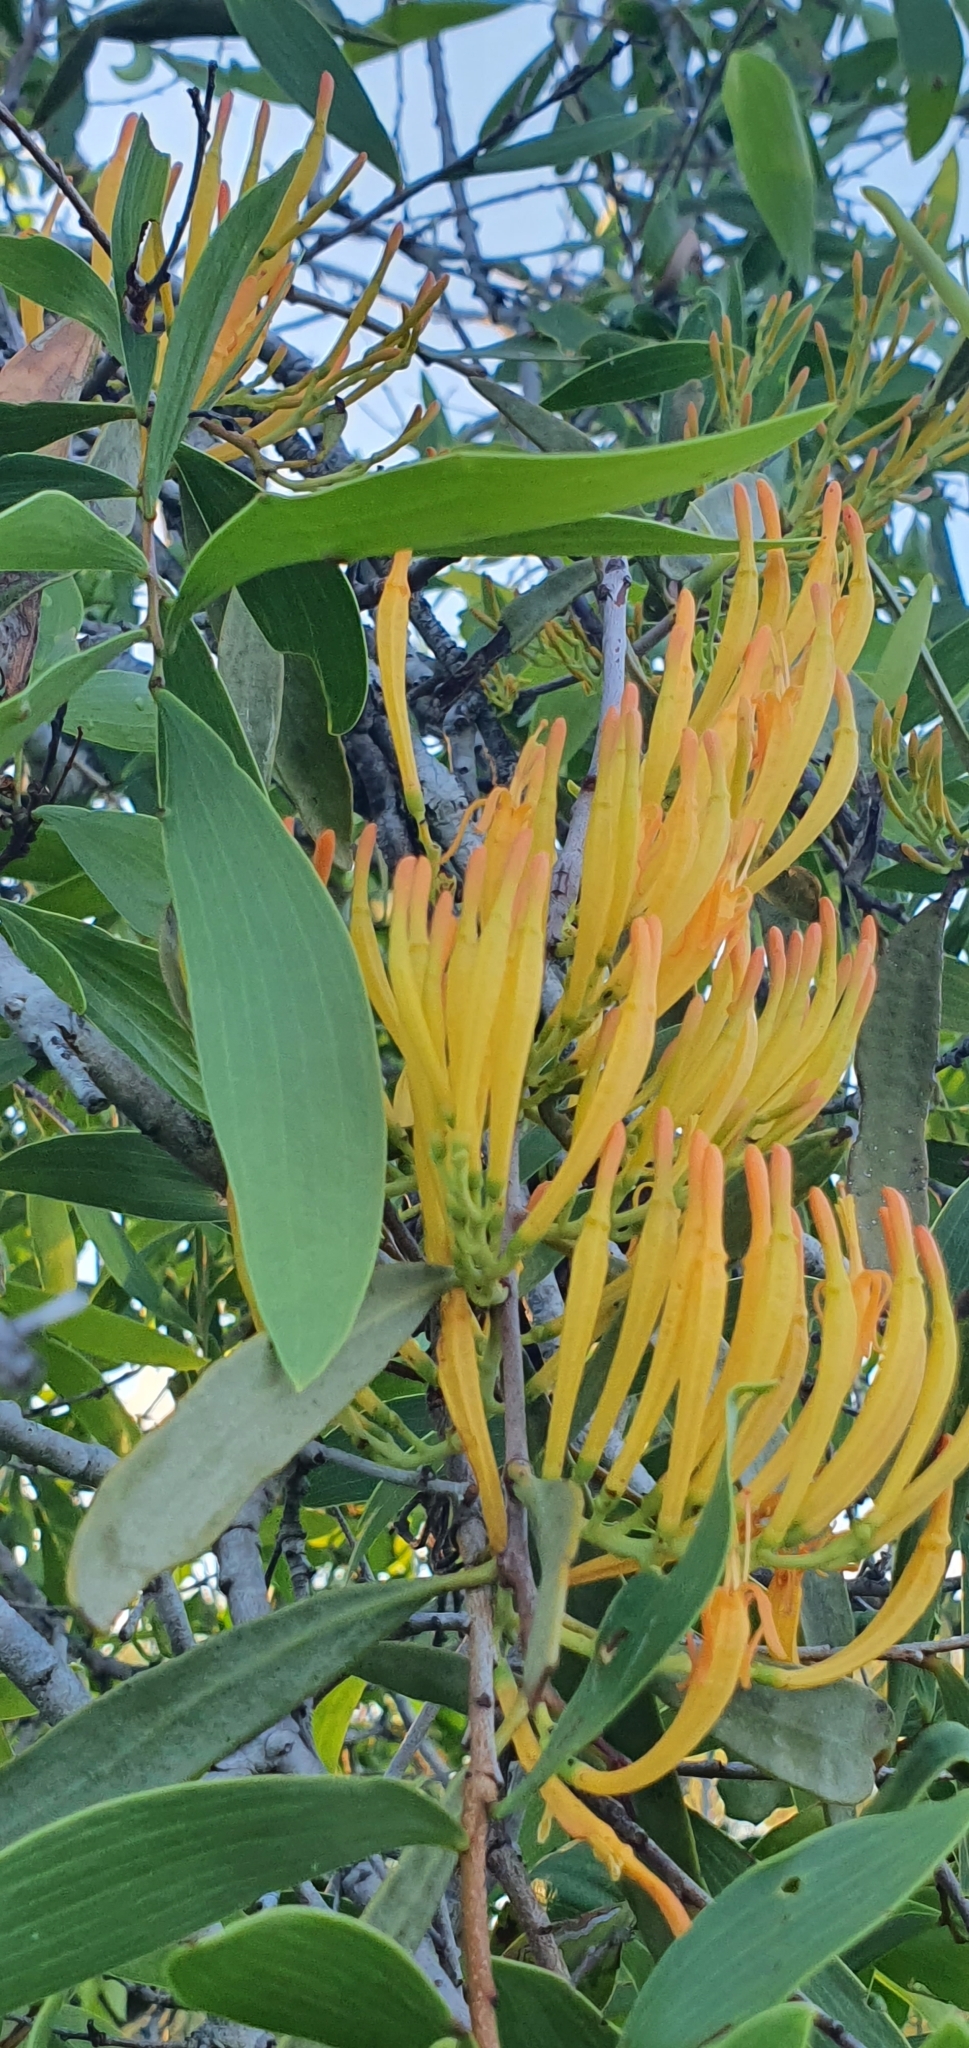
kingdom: Plantae
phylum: Tracheophyta
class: Magnoliopsida
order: Santalales
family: Loranthaceae
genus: Dendrophthoe
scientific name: Dendrophthoe glabrescens
